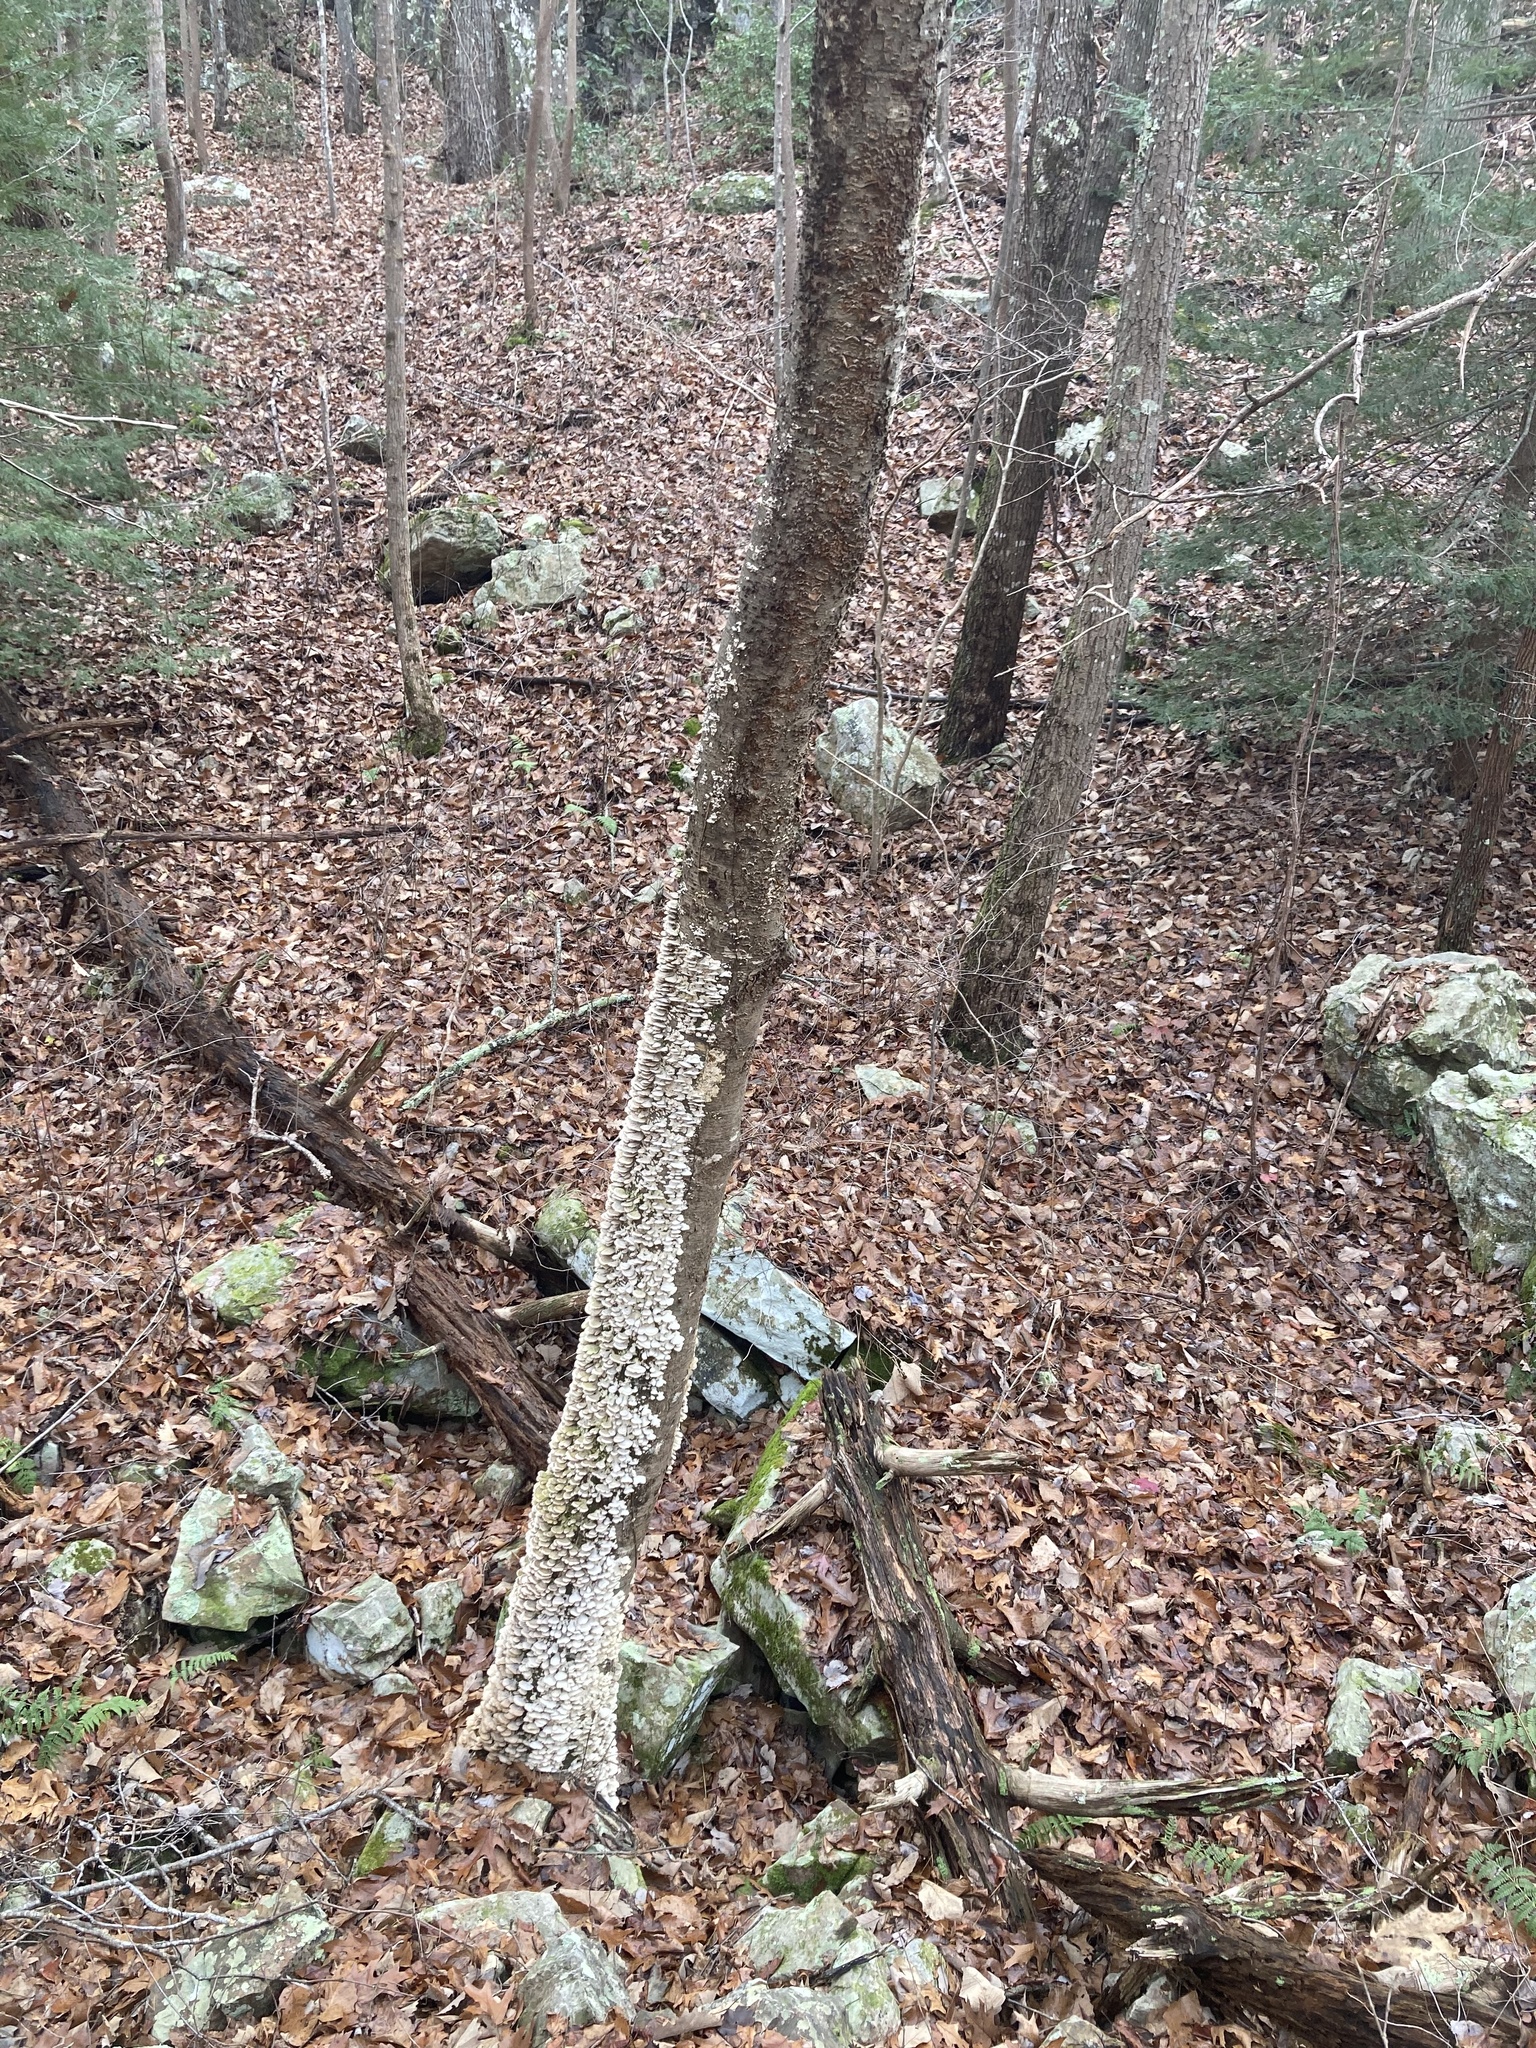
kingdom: Fungi
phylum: Basidiomycota
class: Agaricomycetes
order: Hymenochaetales
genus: Trichaptum
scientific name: Trichaptum biforme
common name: Violet-toothed polypore
